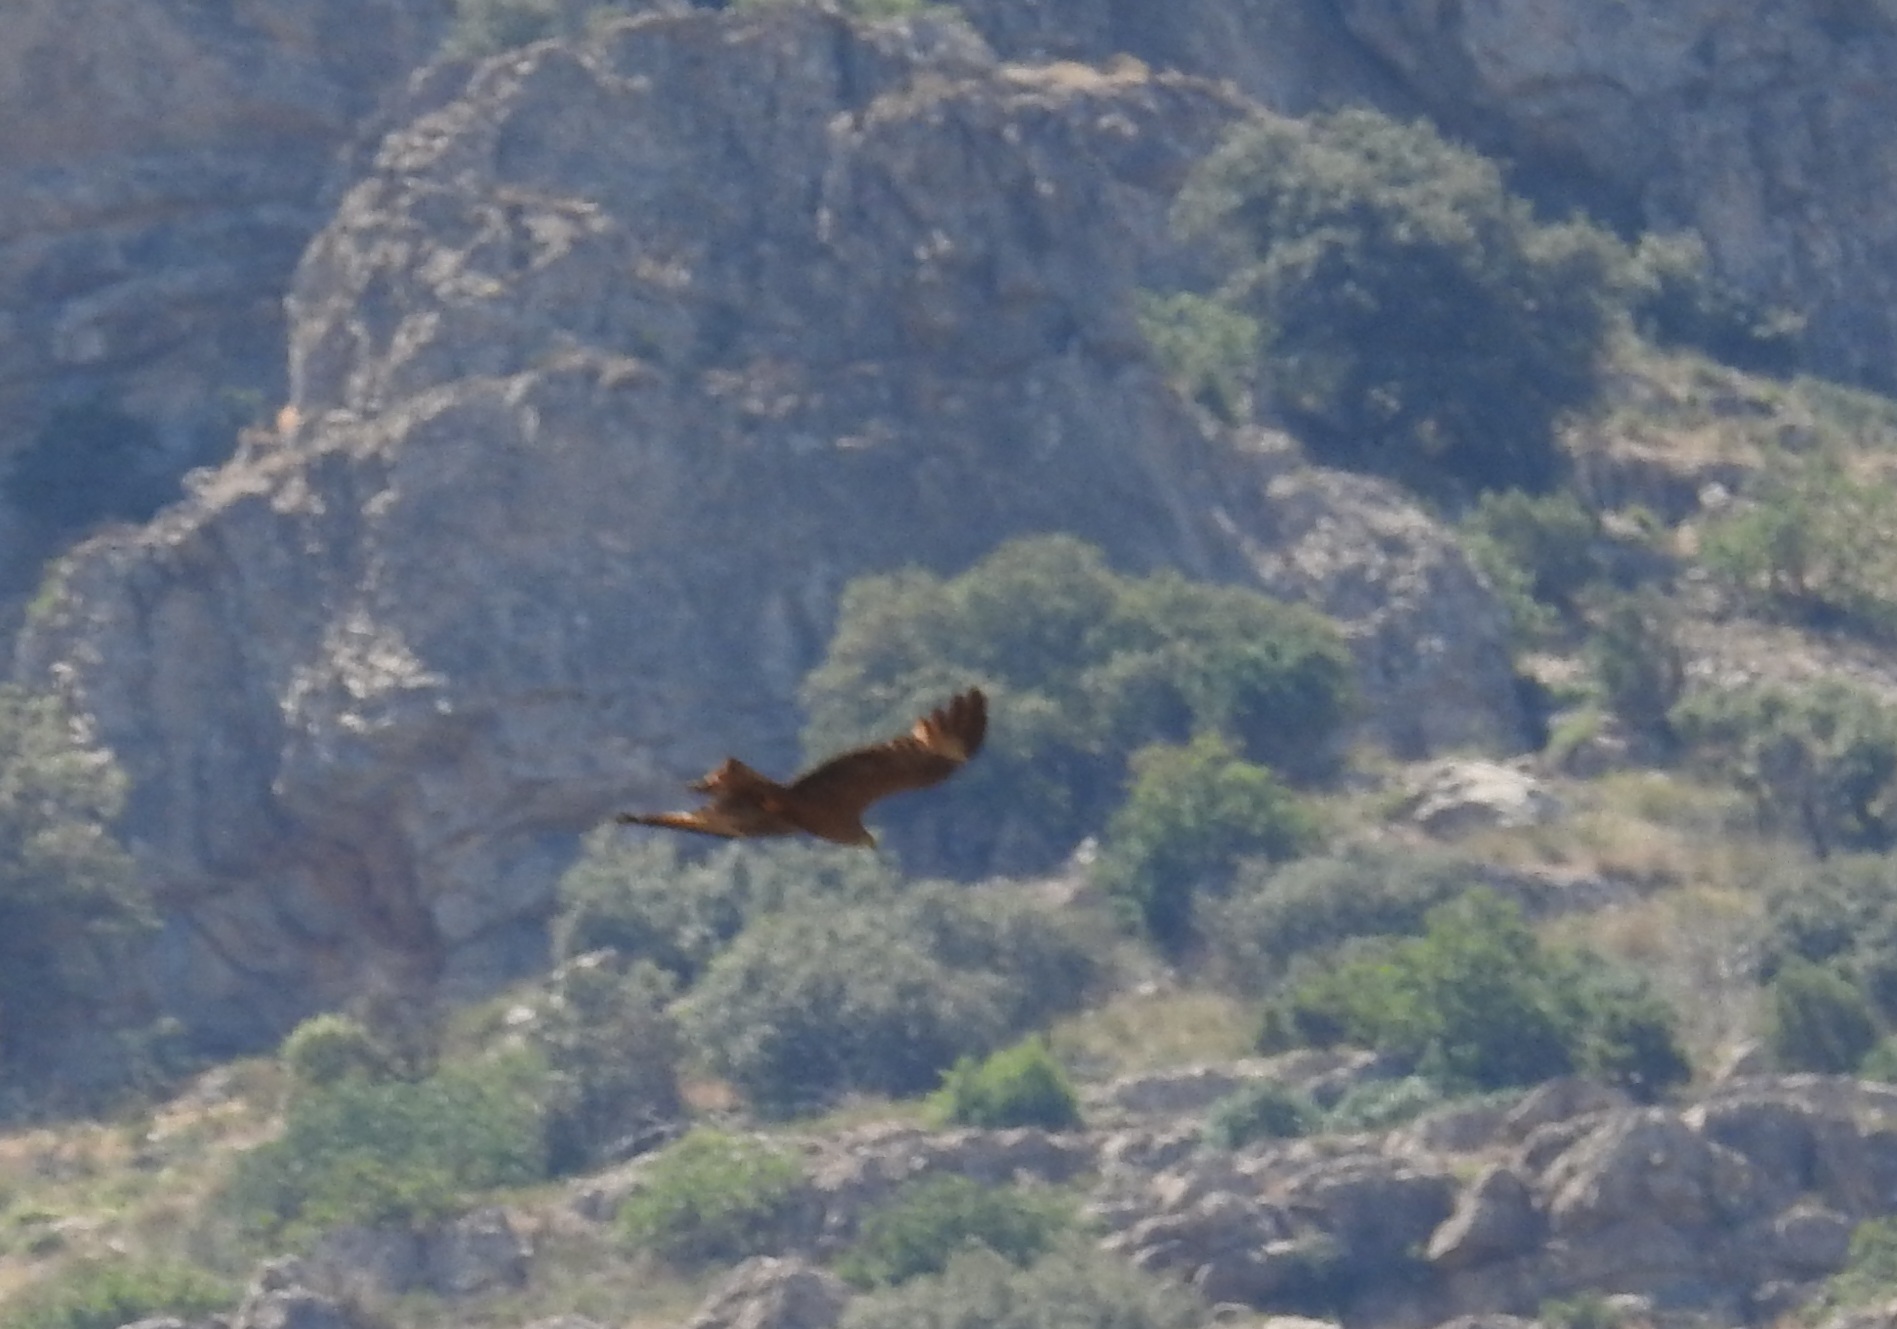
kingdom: Animalia
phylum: Chordata
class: Aves
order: Accipitriformes
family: Accipitridae
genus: Milvus
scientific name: Milvus migrans
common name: Black kite
